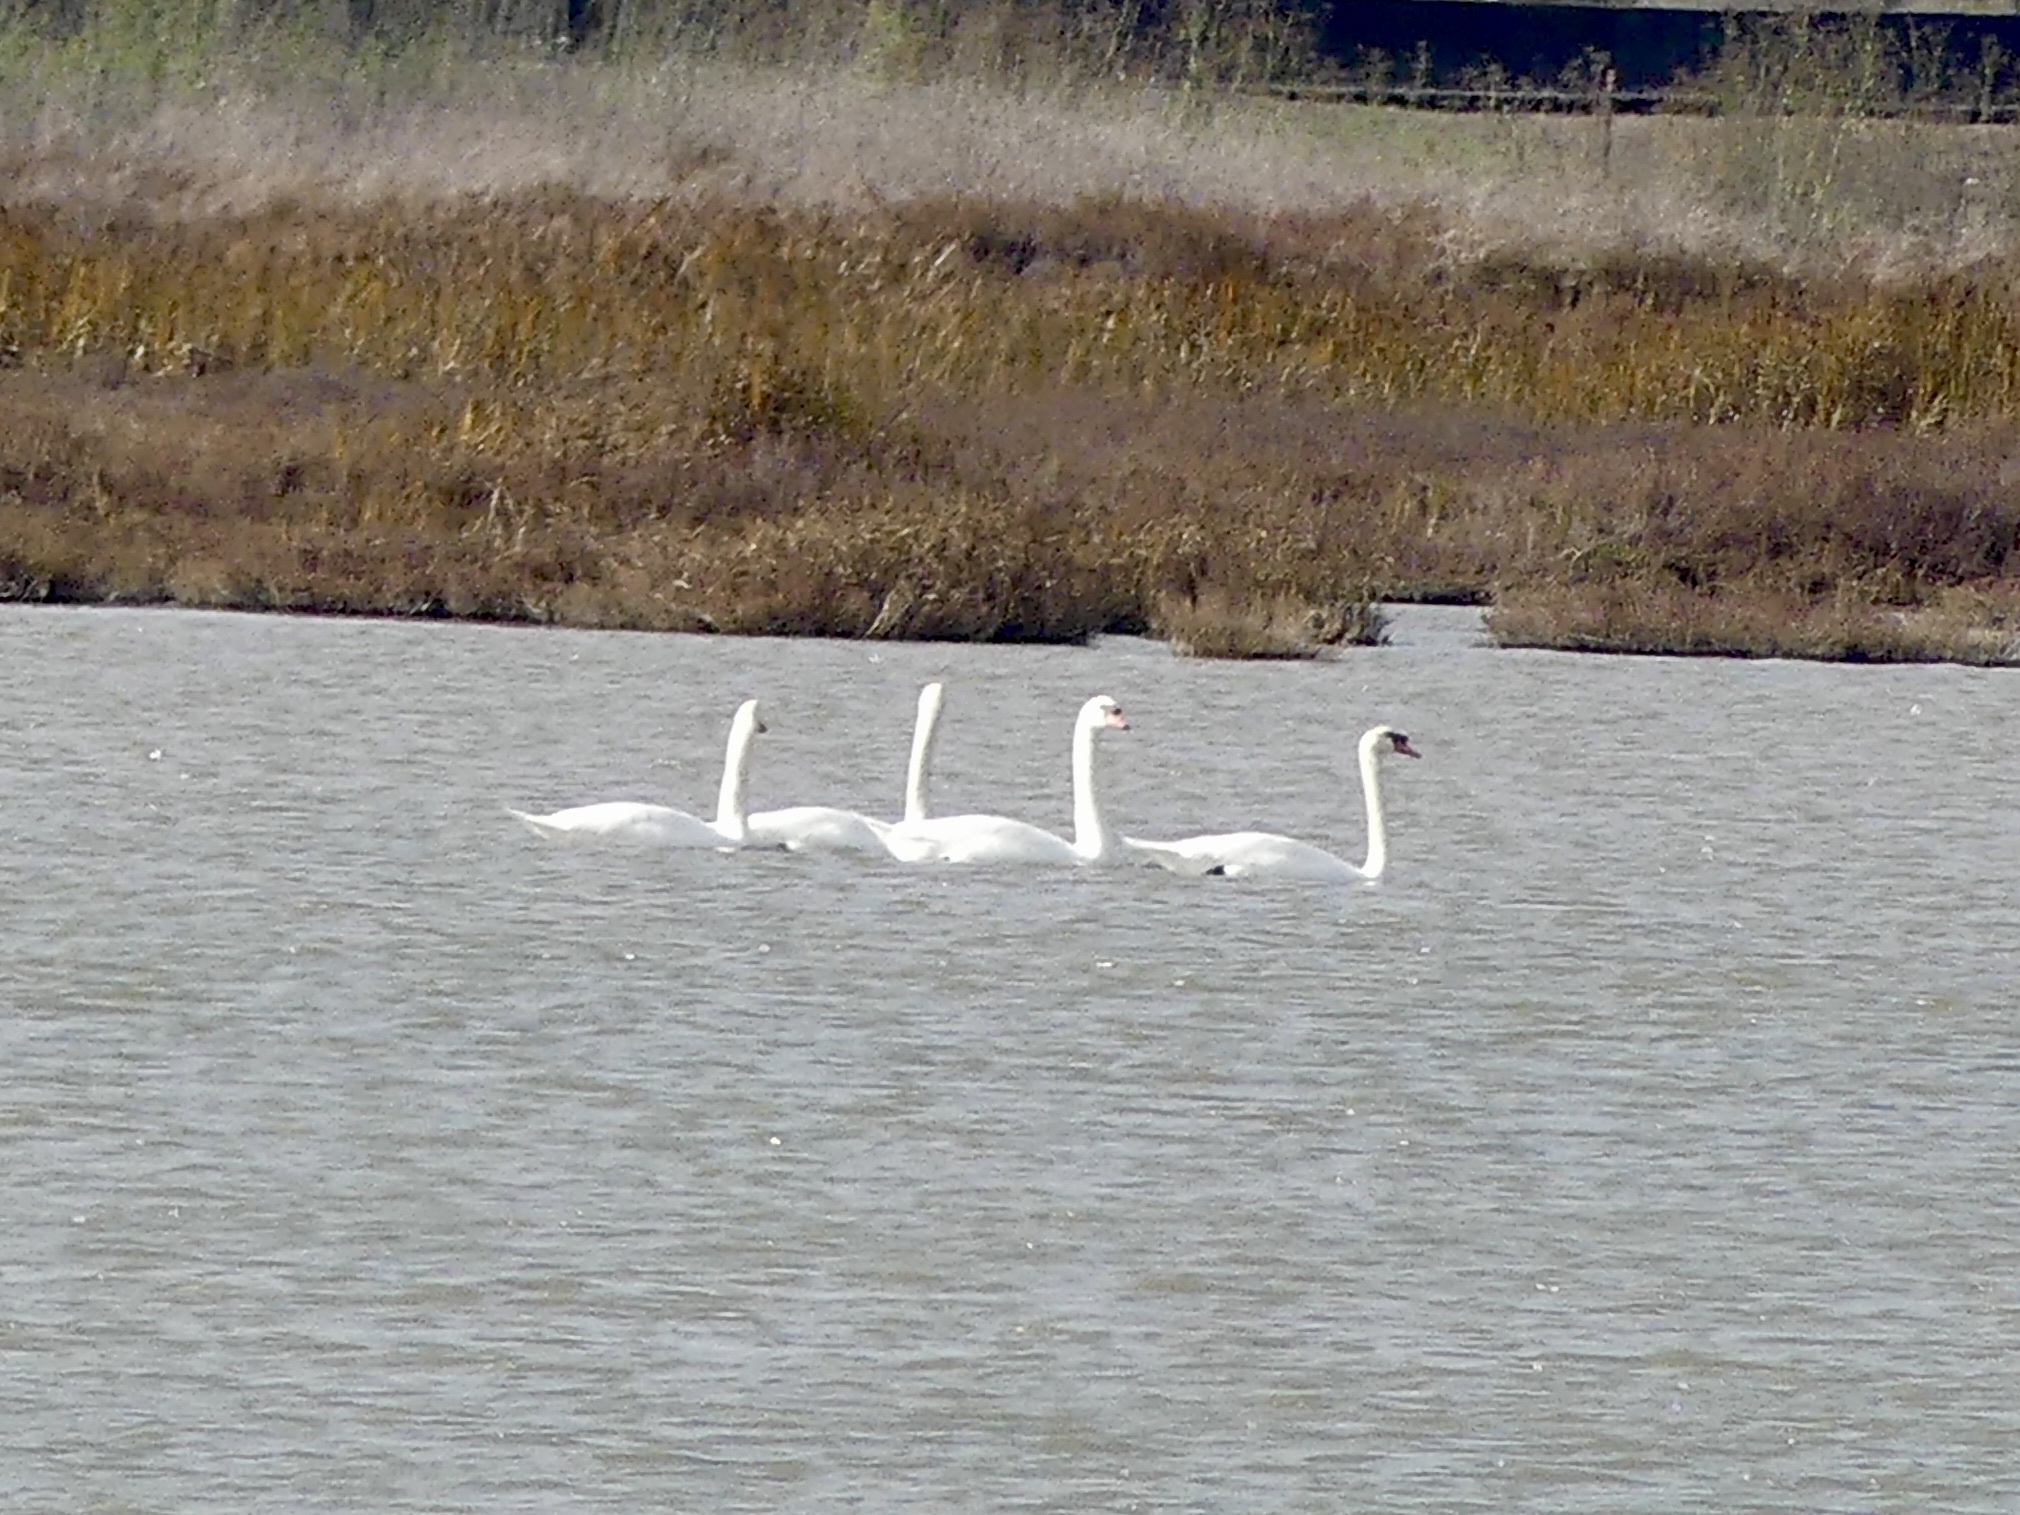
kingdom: Animalia
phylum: Chordata
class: Aves
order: Anseriformes
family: Anatidae
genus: Cygnus
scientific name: Cygnus olor
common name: Mute swan
